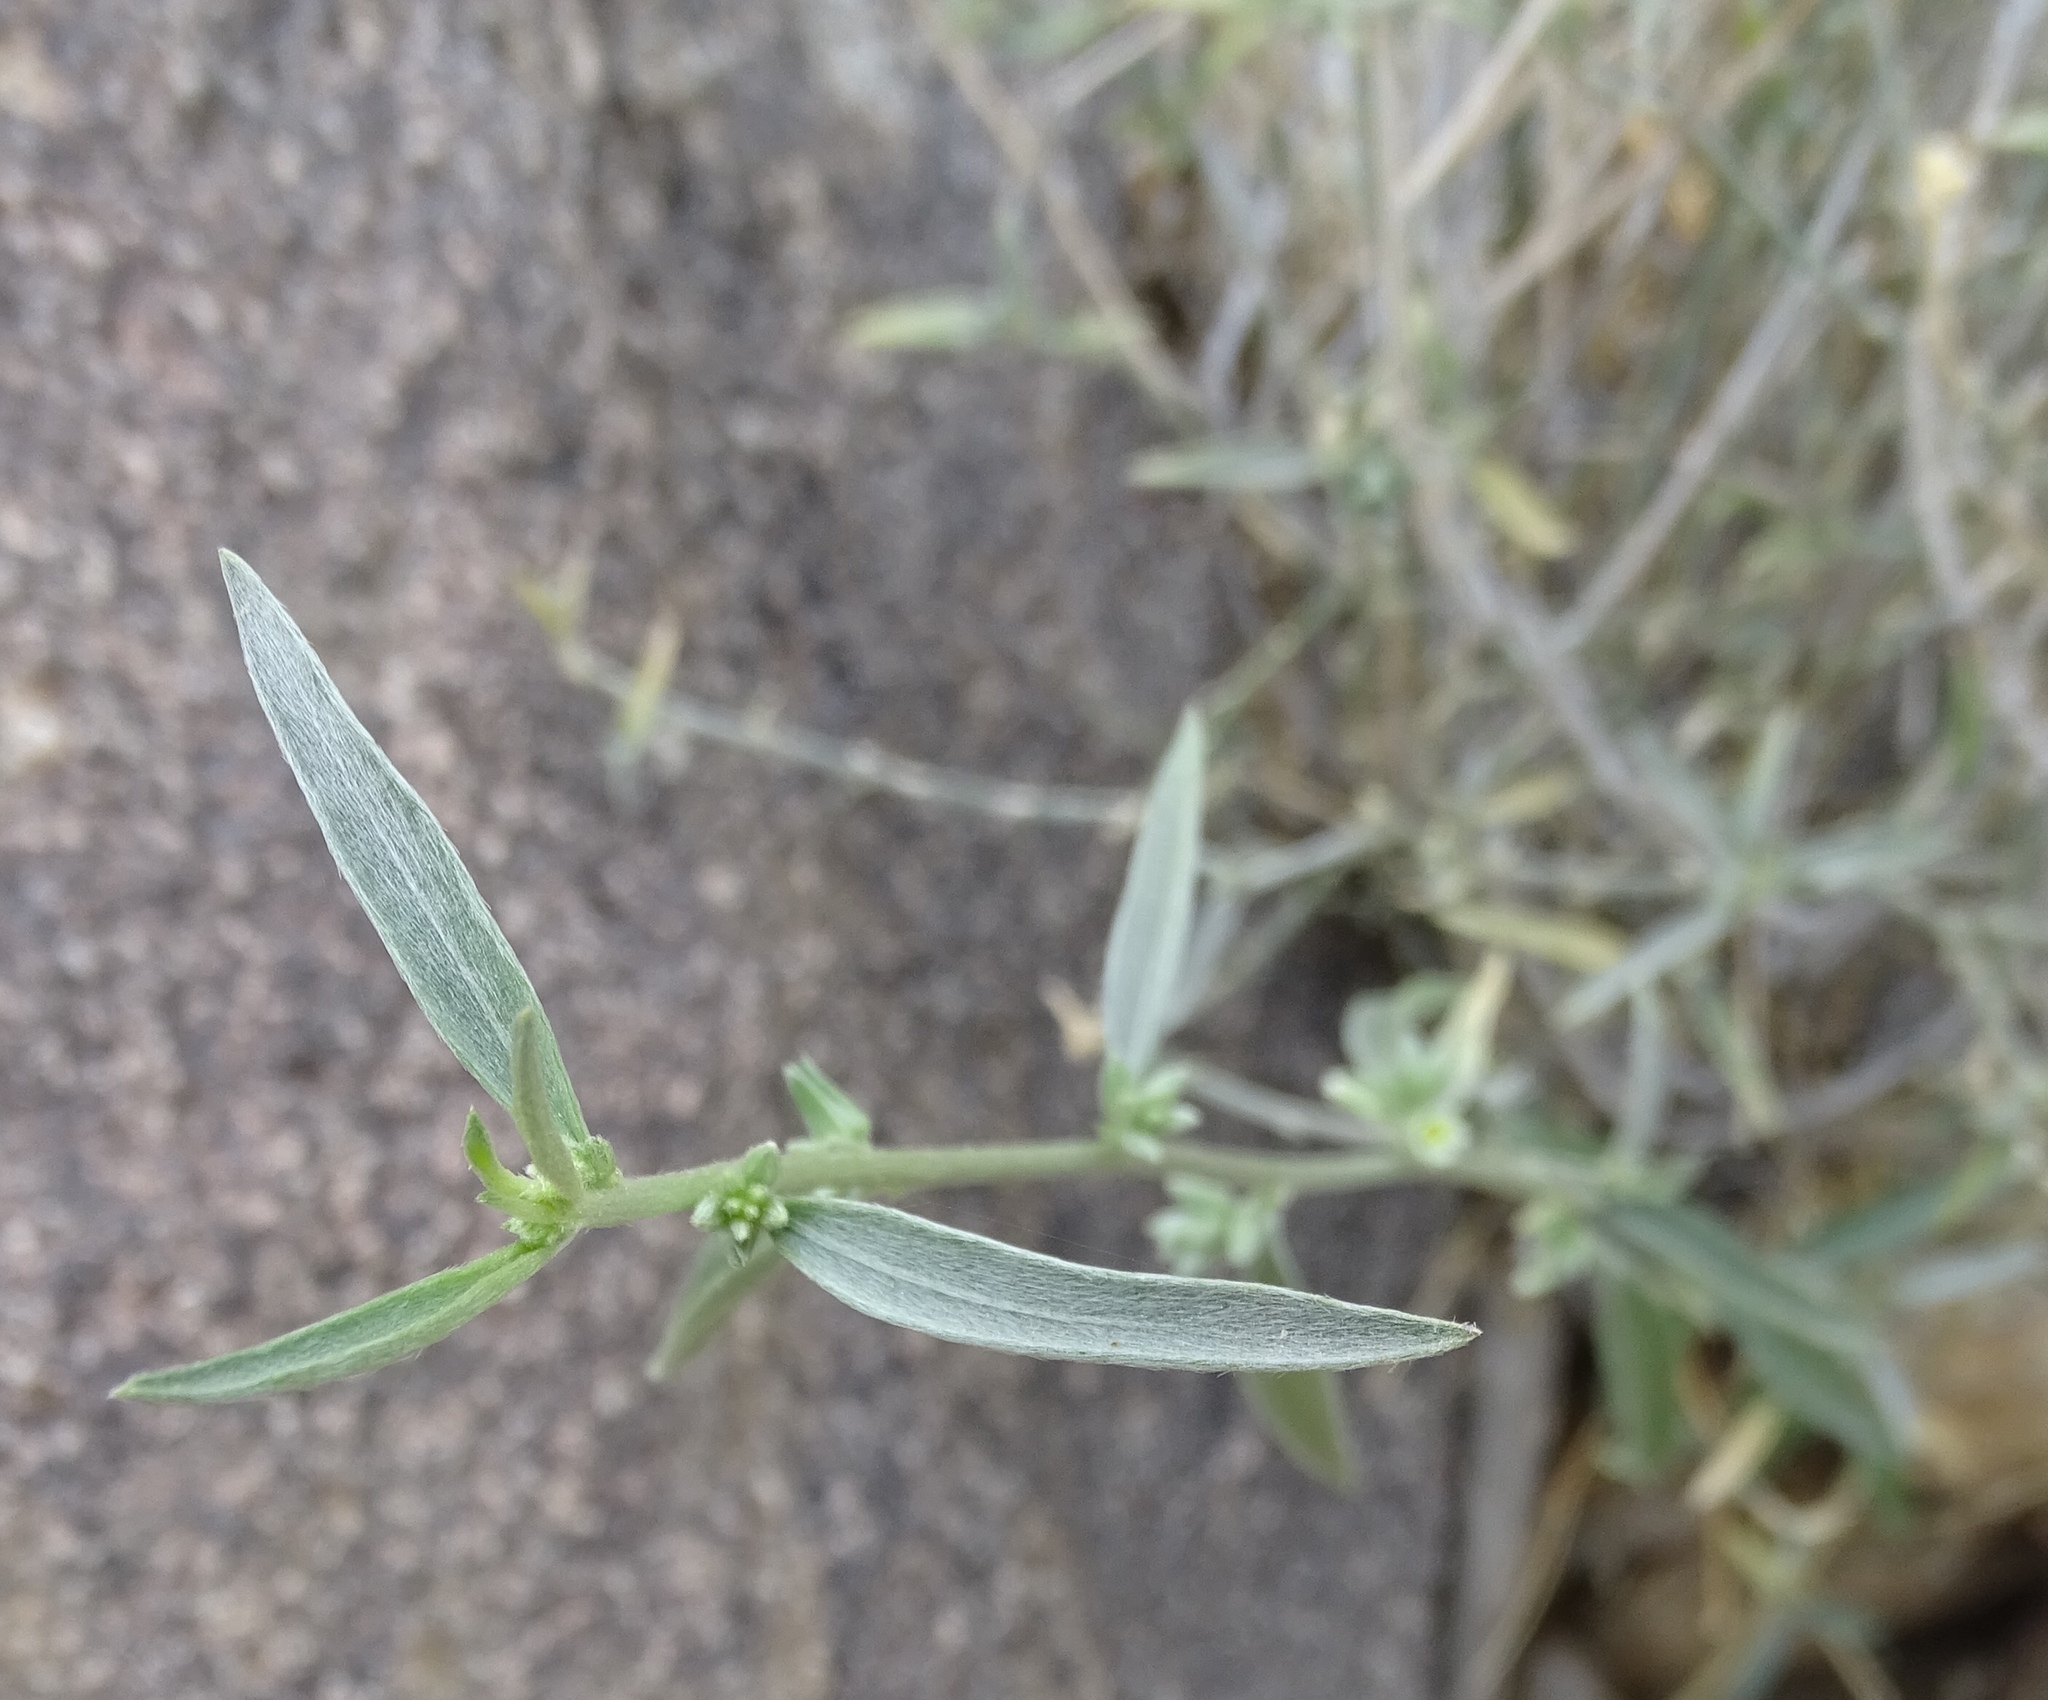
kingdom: Plantae
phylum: Tracheophyta
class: Magnoliopsida
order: Malpighiales
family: Euphorbiaceae
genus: Ditaxis
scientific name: Ditaxis lanceolata
